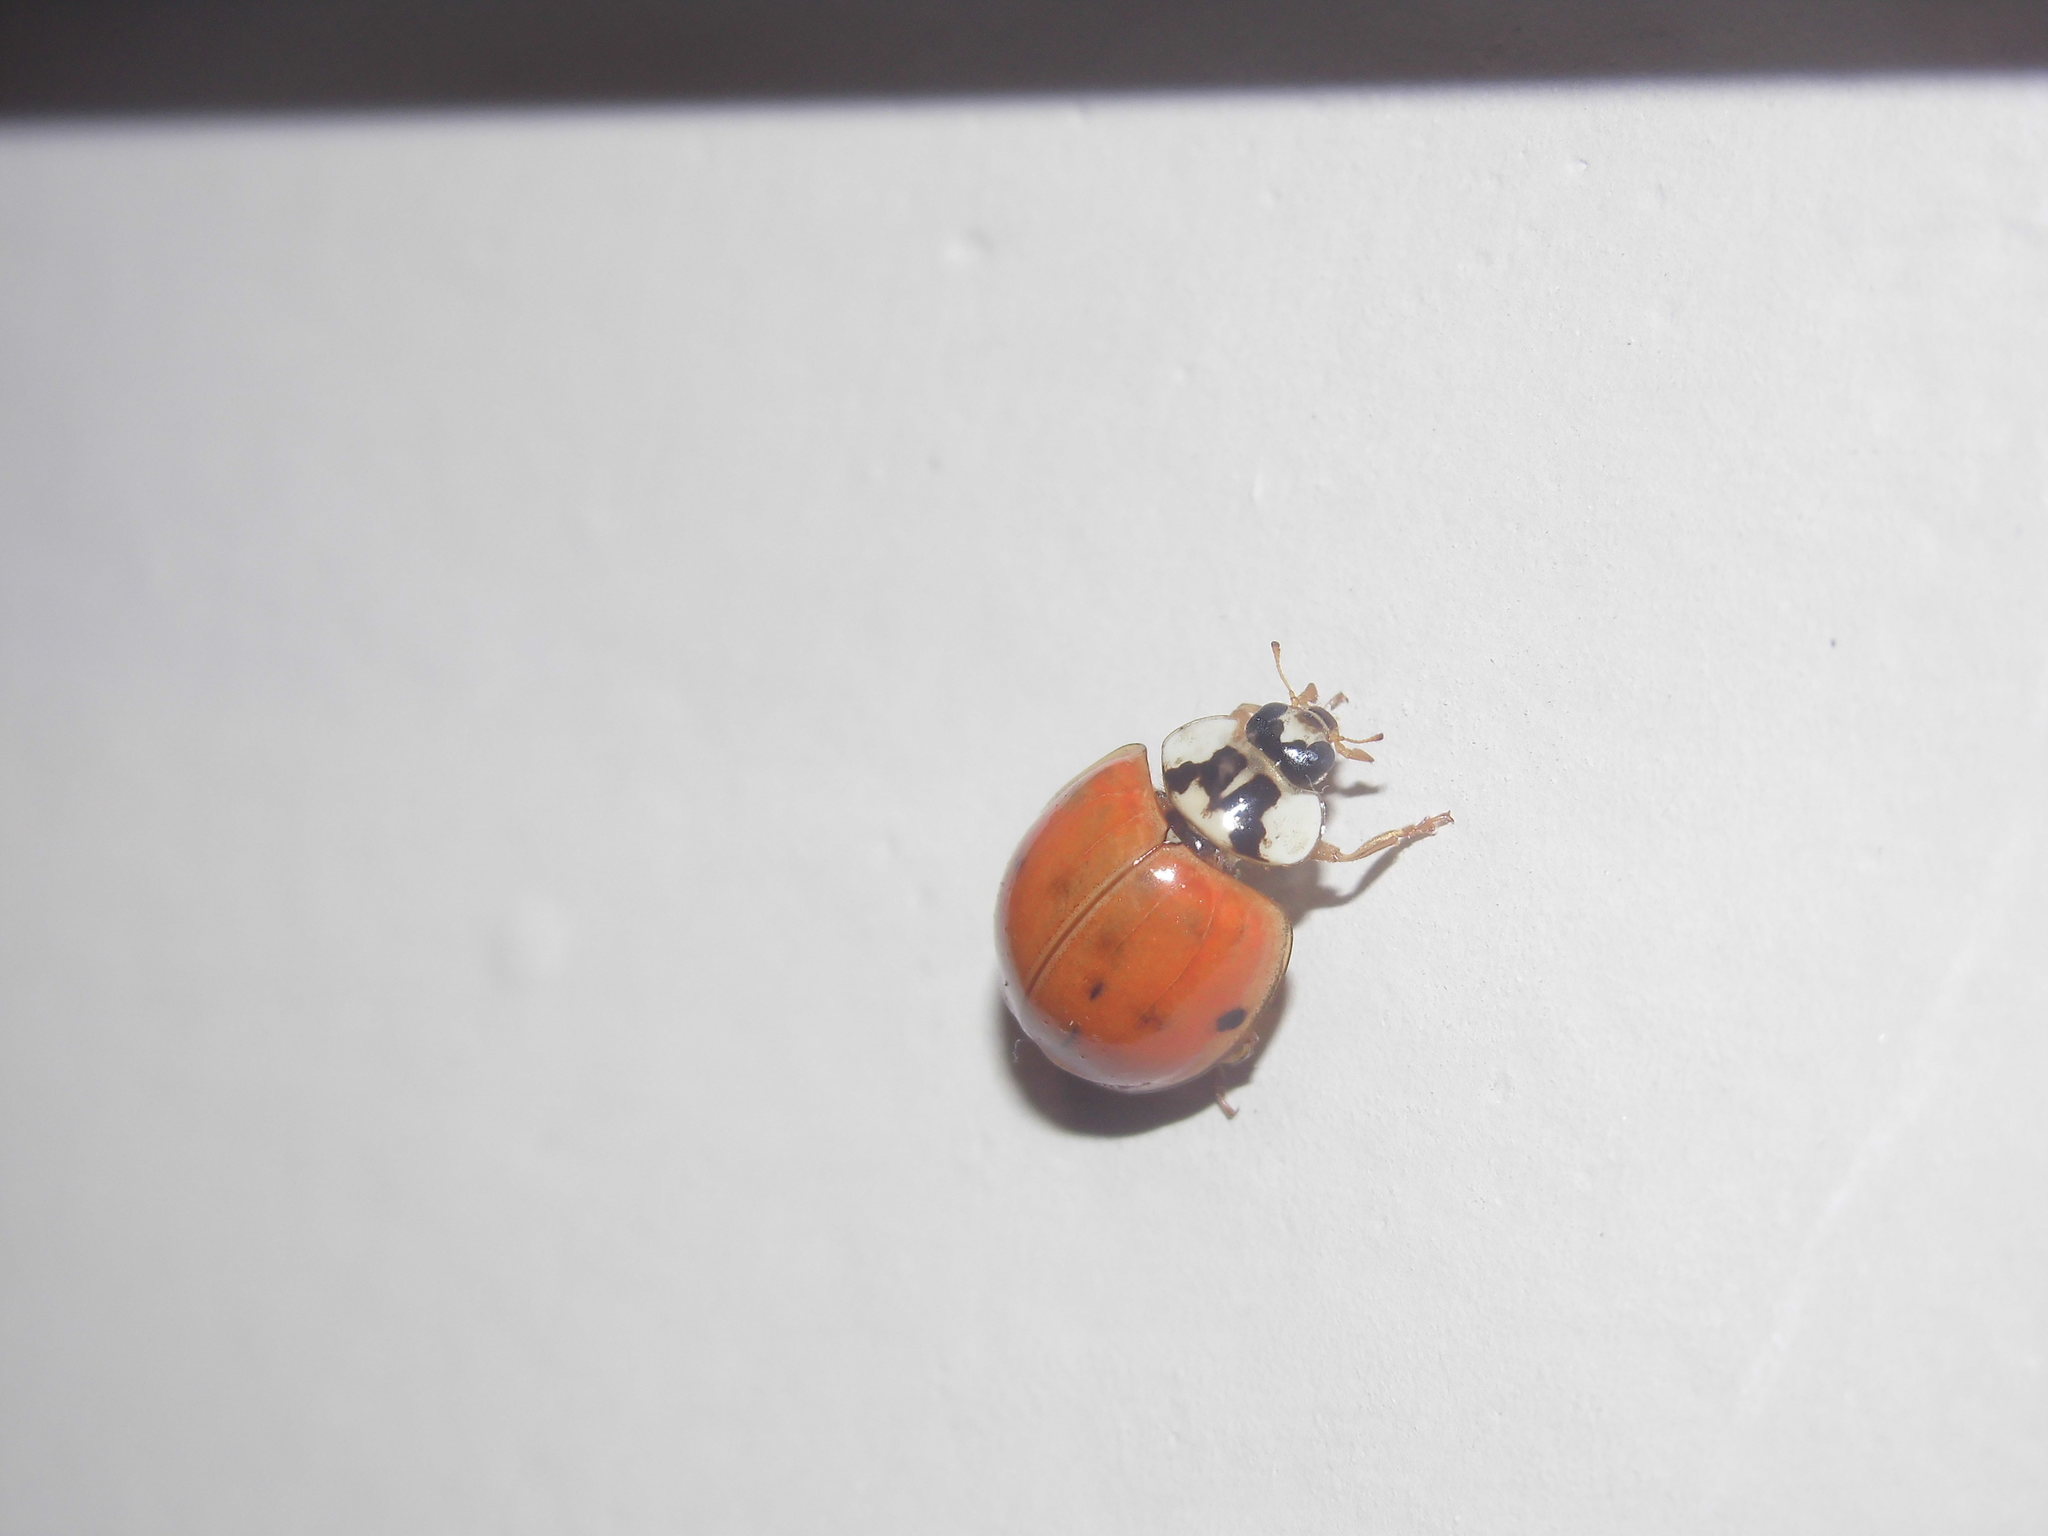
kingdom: Animalia
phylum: Arthropoda
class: Insecta
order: Coleoptera
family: Coccinellidae
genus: Harmonia
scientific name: Harmonia axyridis
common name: Harlequin ladybird
